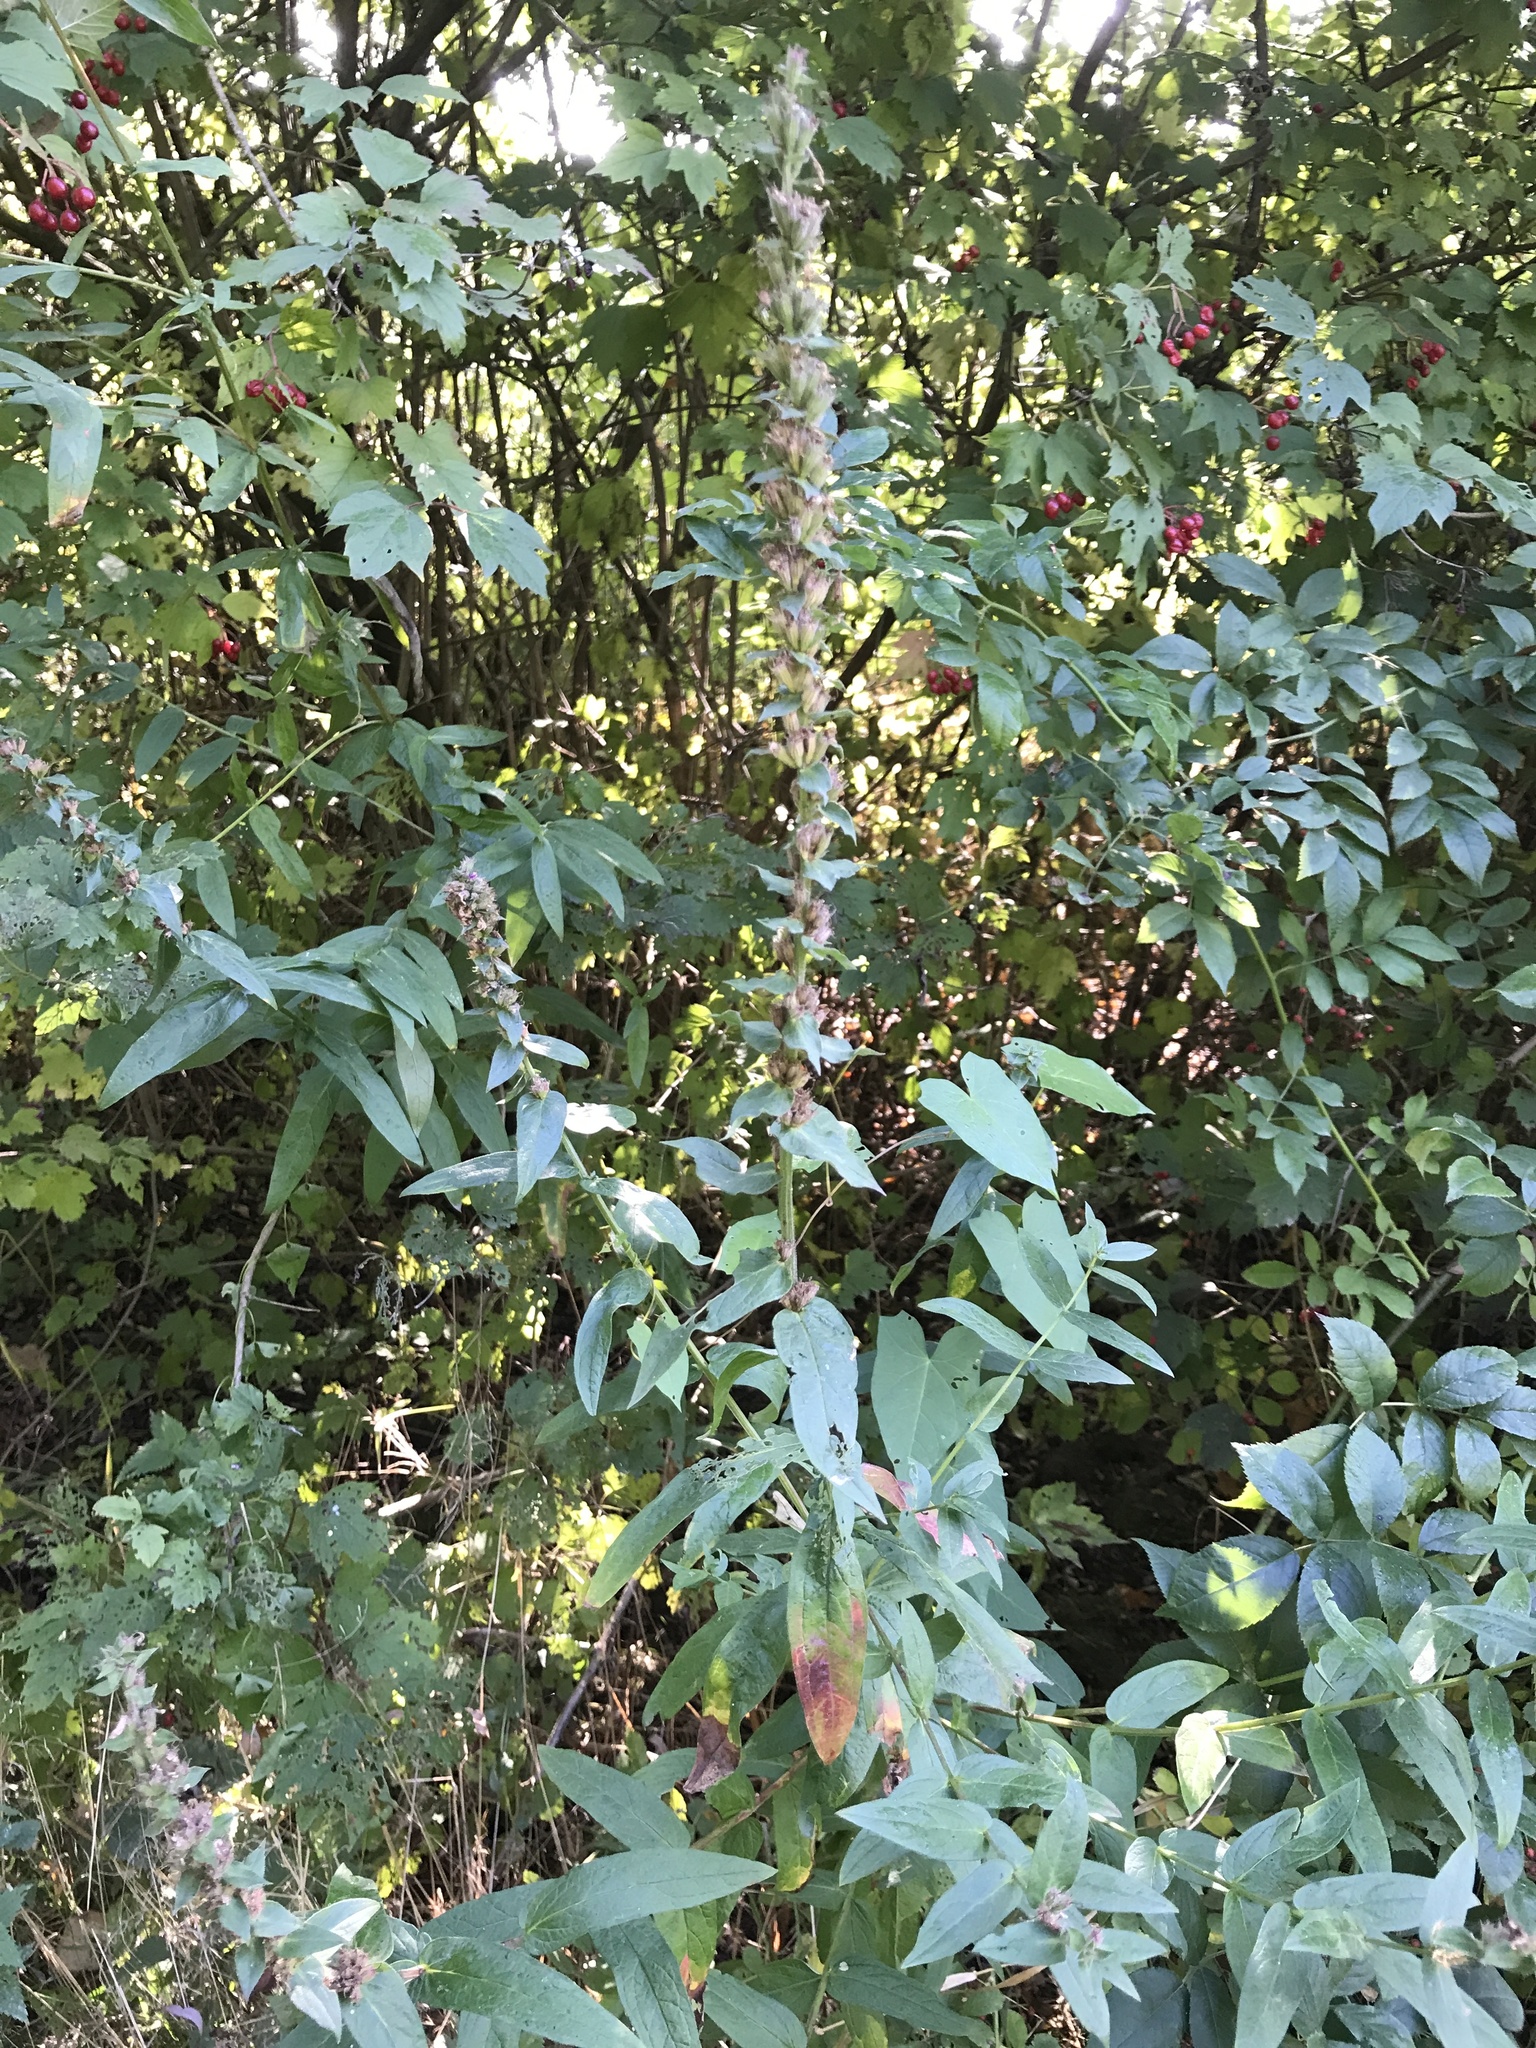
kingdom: Plantae
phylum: Tracheophyta
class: Magnoliopsida
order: Myrtales
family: Lythraceae
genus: Lythrum
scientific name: Lythrum salicaria
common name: Purple loosestrife
